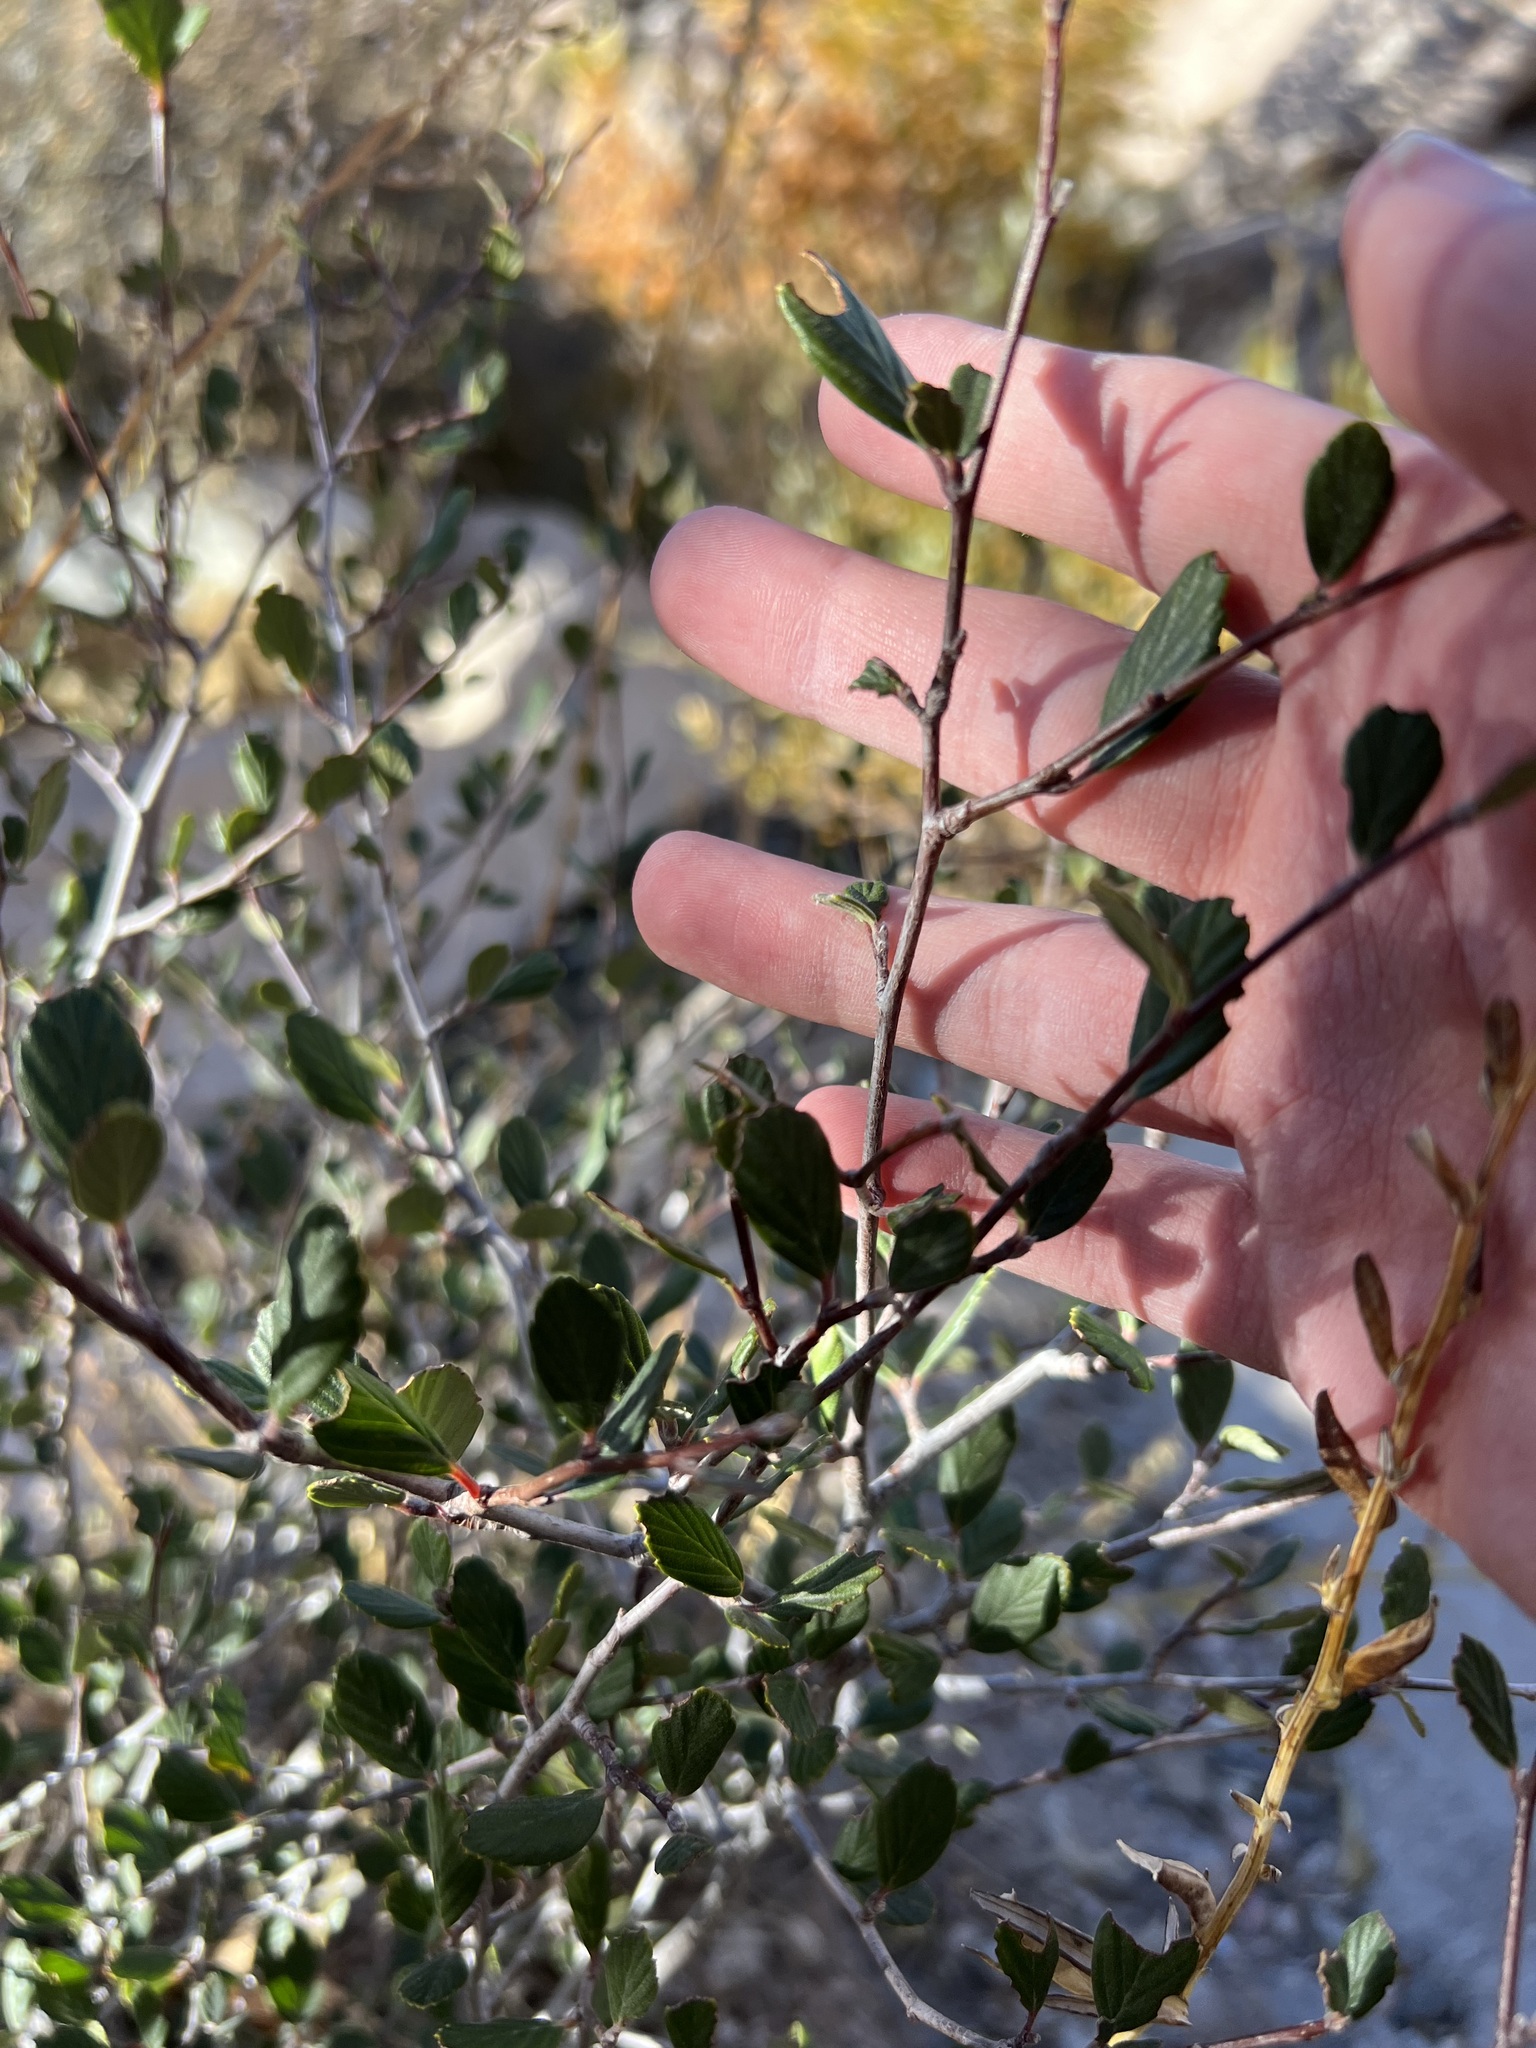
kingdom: Plantae
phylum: Tracheophyta
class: Magnoliopsida
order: Rosales
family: Rosaceae
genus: Cercocarpus
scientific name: Cercocarpus betuloides
